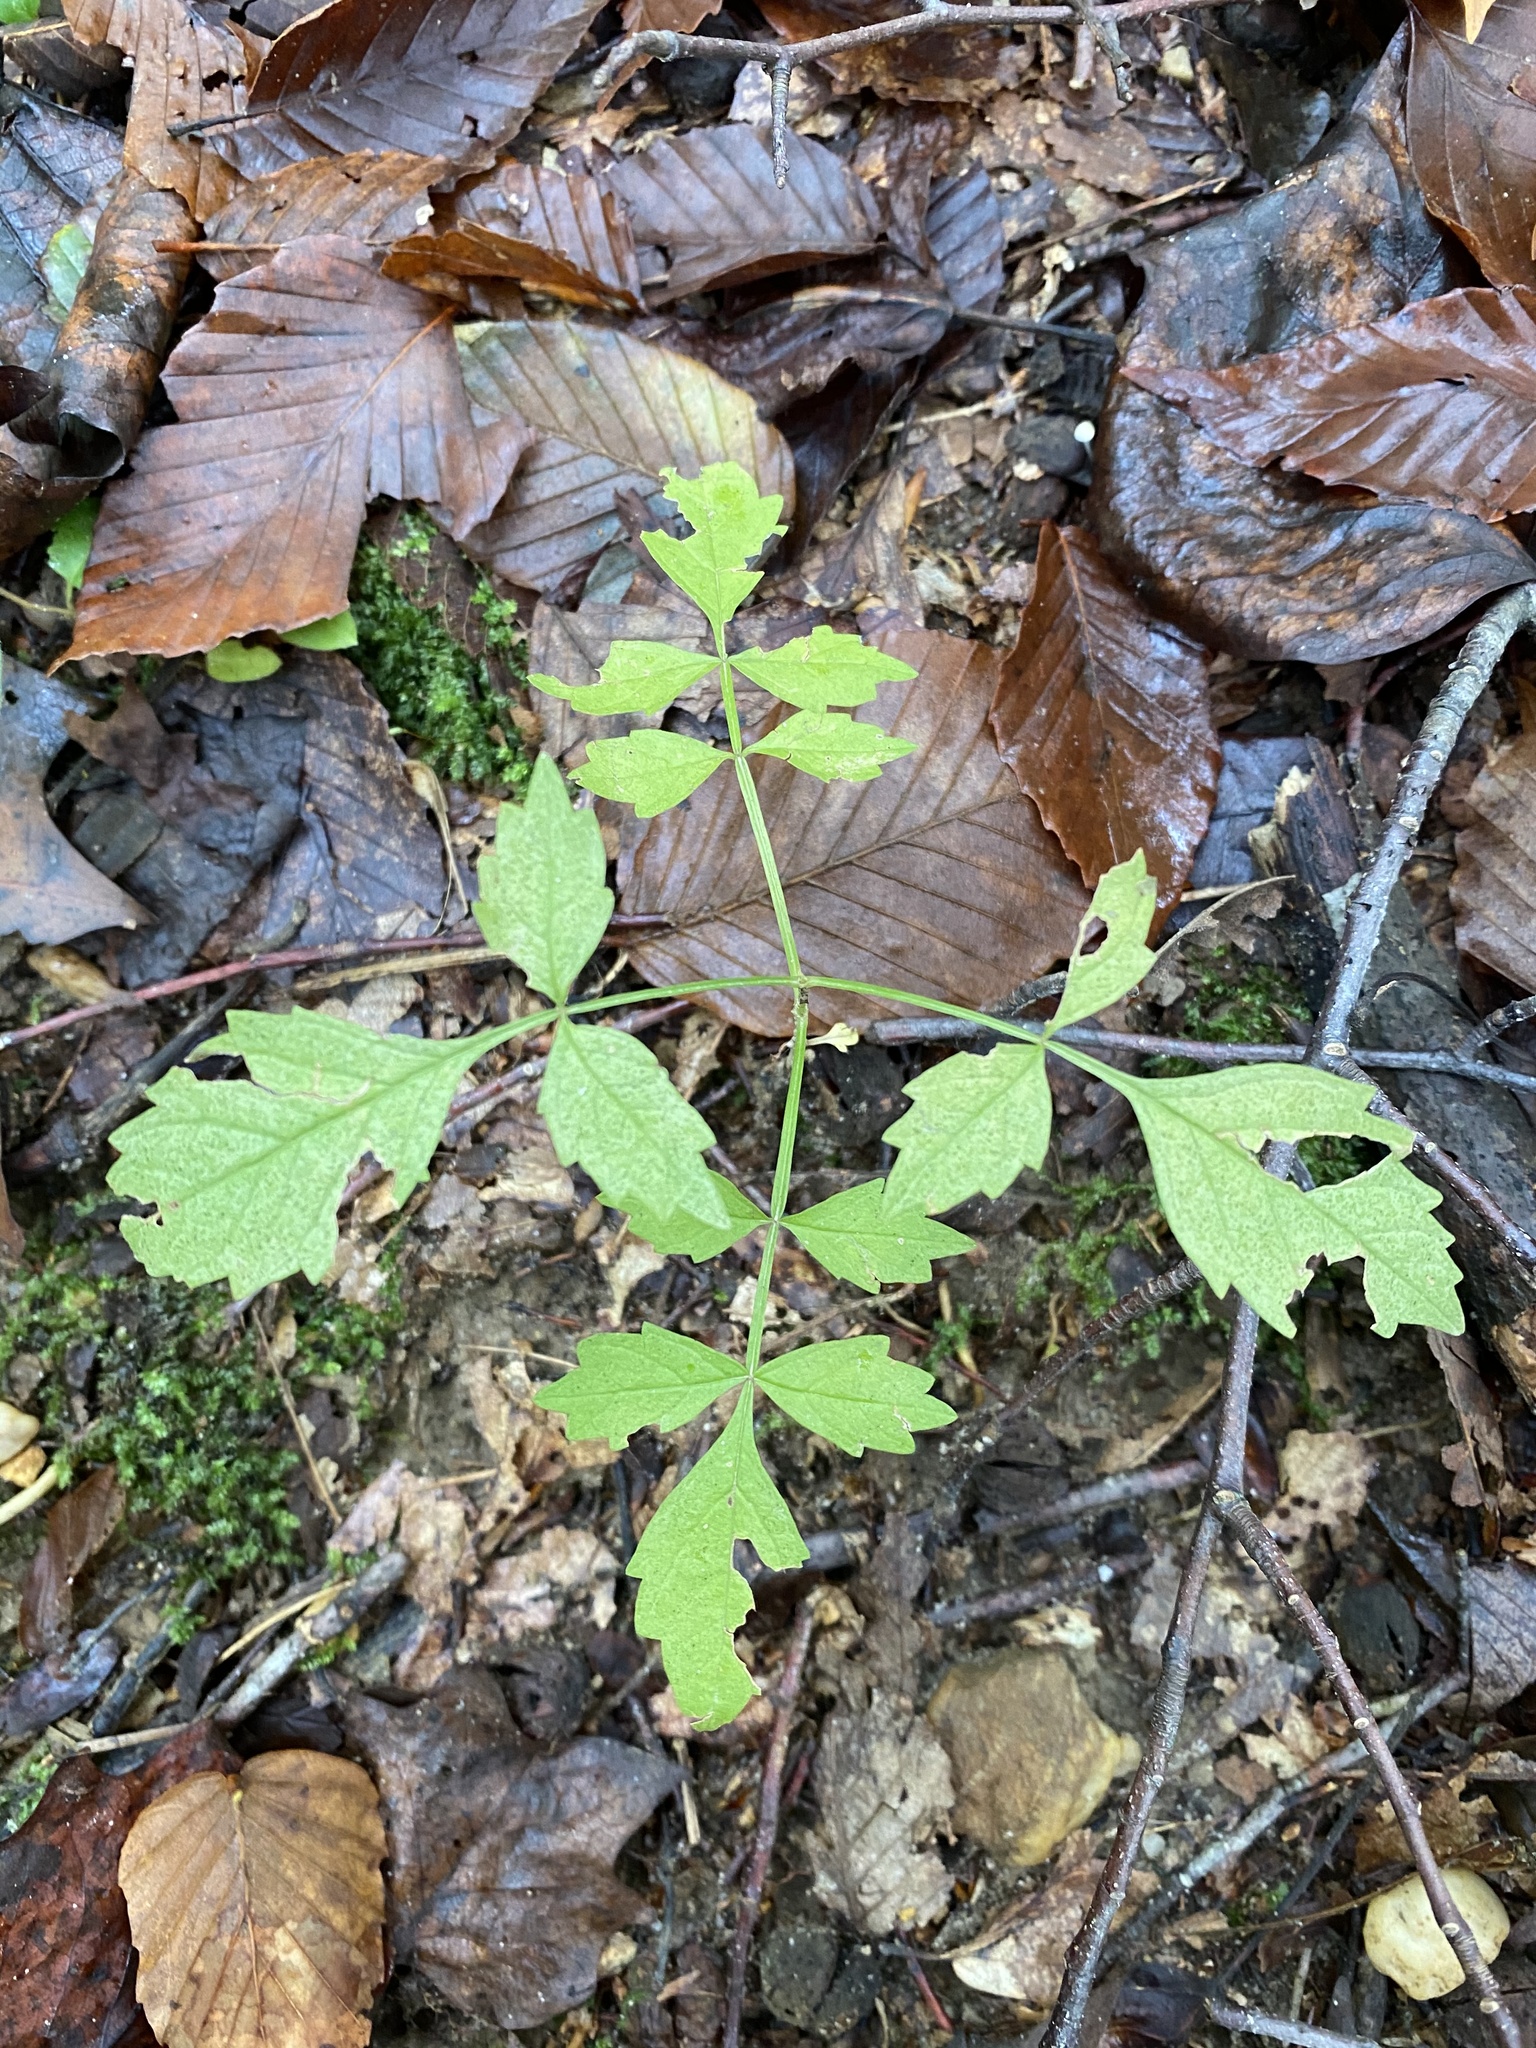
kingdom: Plantae
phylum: Tracheophyta
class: Magnoliopsida
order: Lamiales
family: Bignoniaceae
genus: Campsis
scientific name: Campsis radicans
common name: Trumpet-creeper
